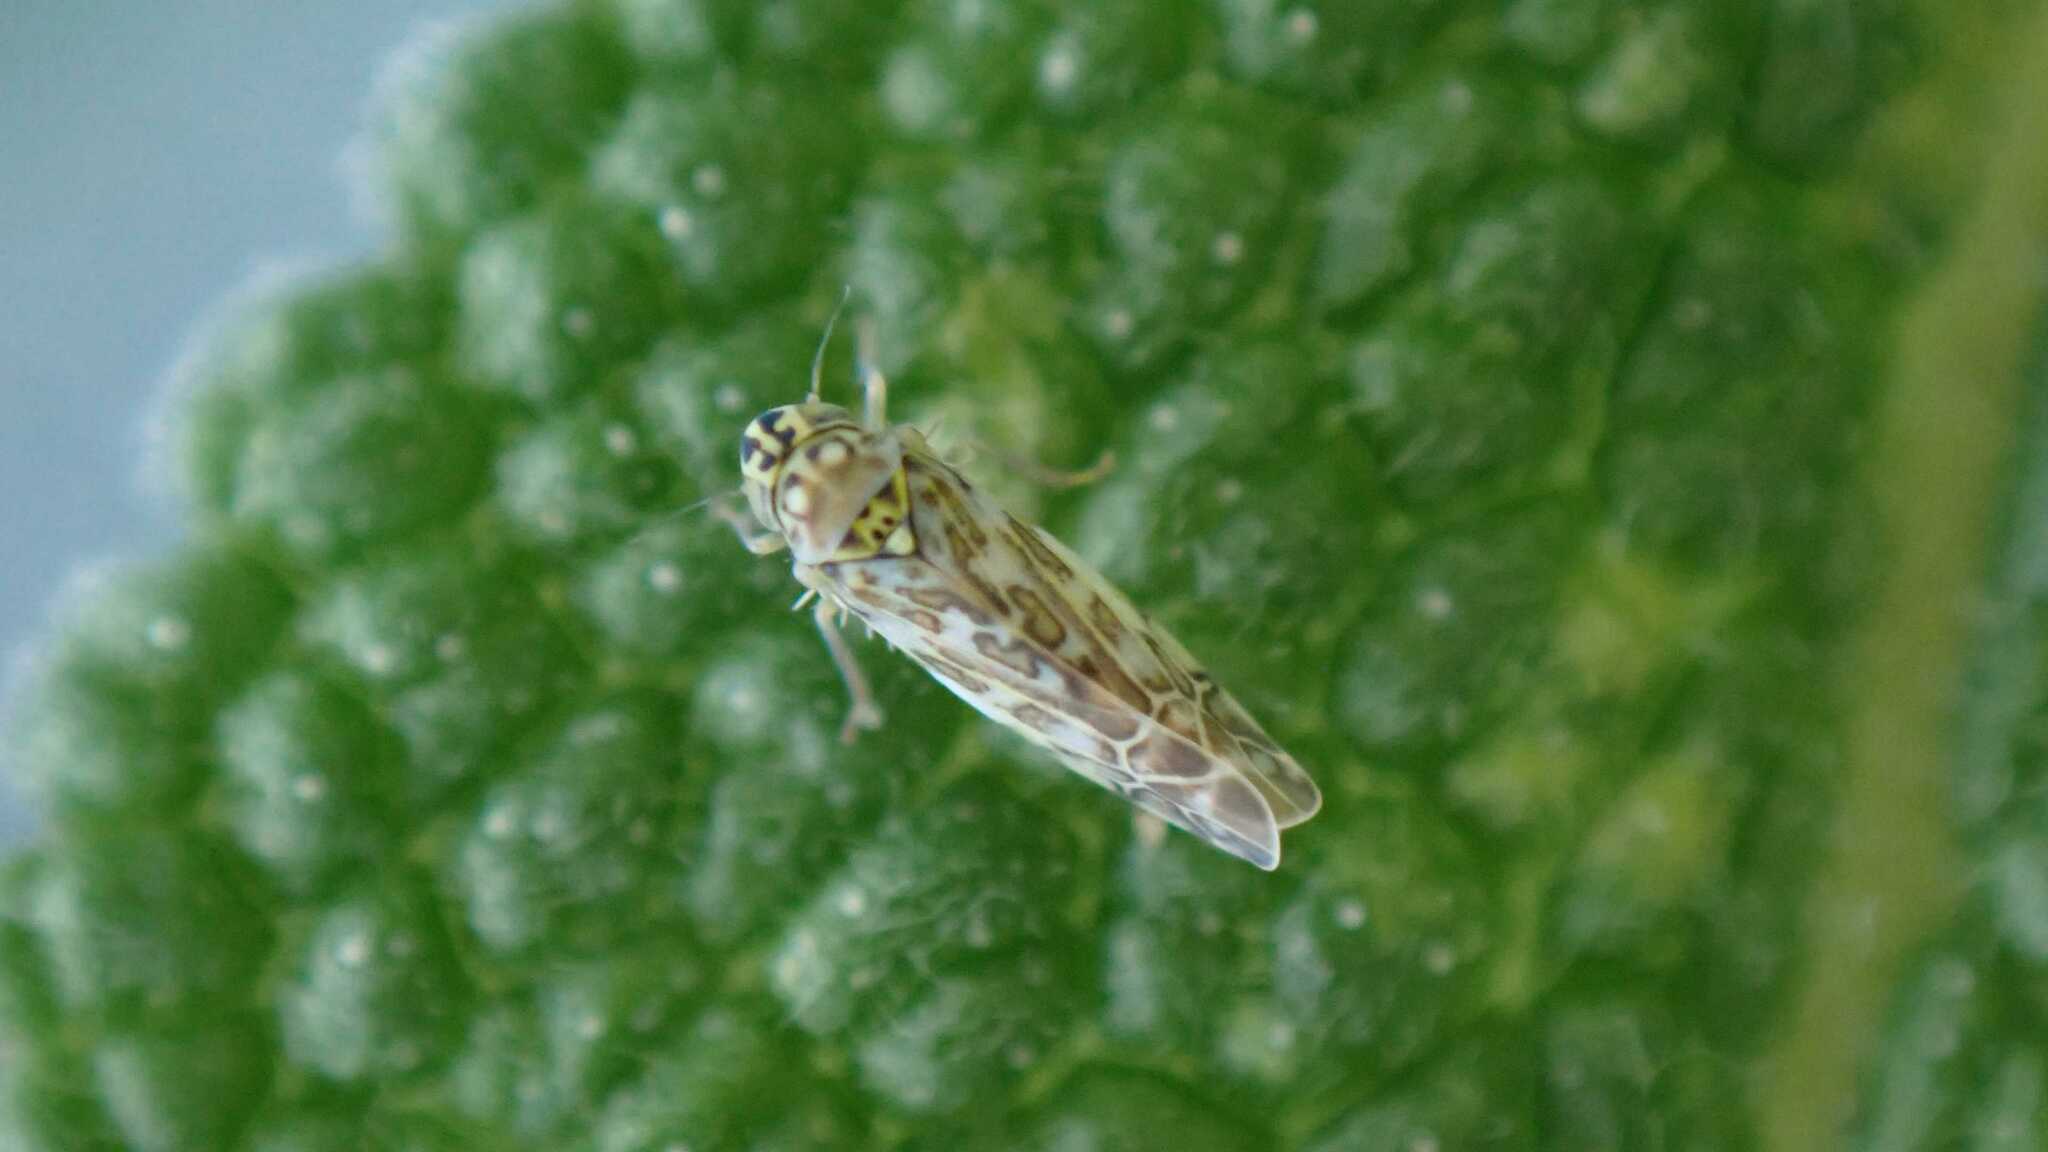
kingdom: Animalia
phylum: Arthropoda
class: Insecta
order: Hemiptera
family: Cicadellidae
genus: Eupteryx
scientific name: Eupteryx decemnotata
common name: Ligurian leafhopper
